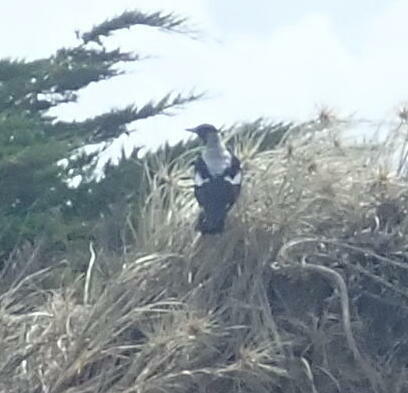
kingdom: Animalia
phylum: Chordata
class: Aves
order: Passeriformes
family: Cracticidae
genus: Gymnorhina
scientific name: Gymnorhina tibicen
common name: Australian magpie
